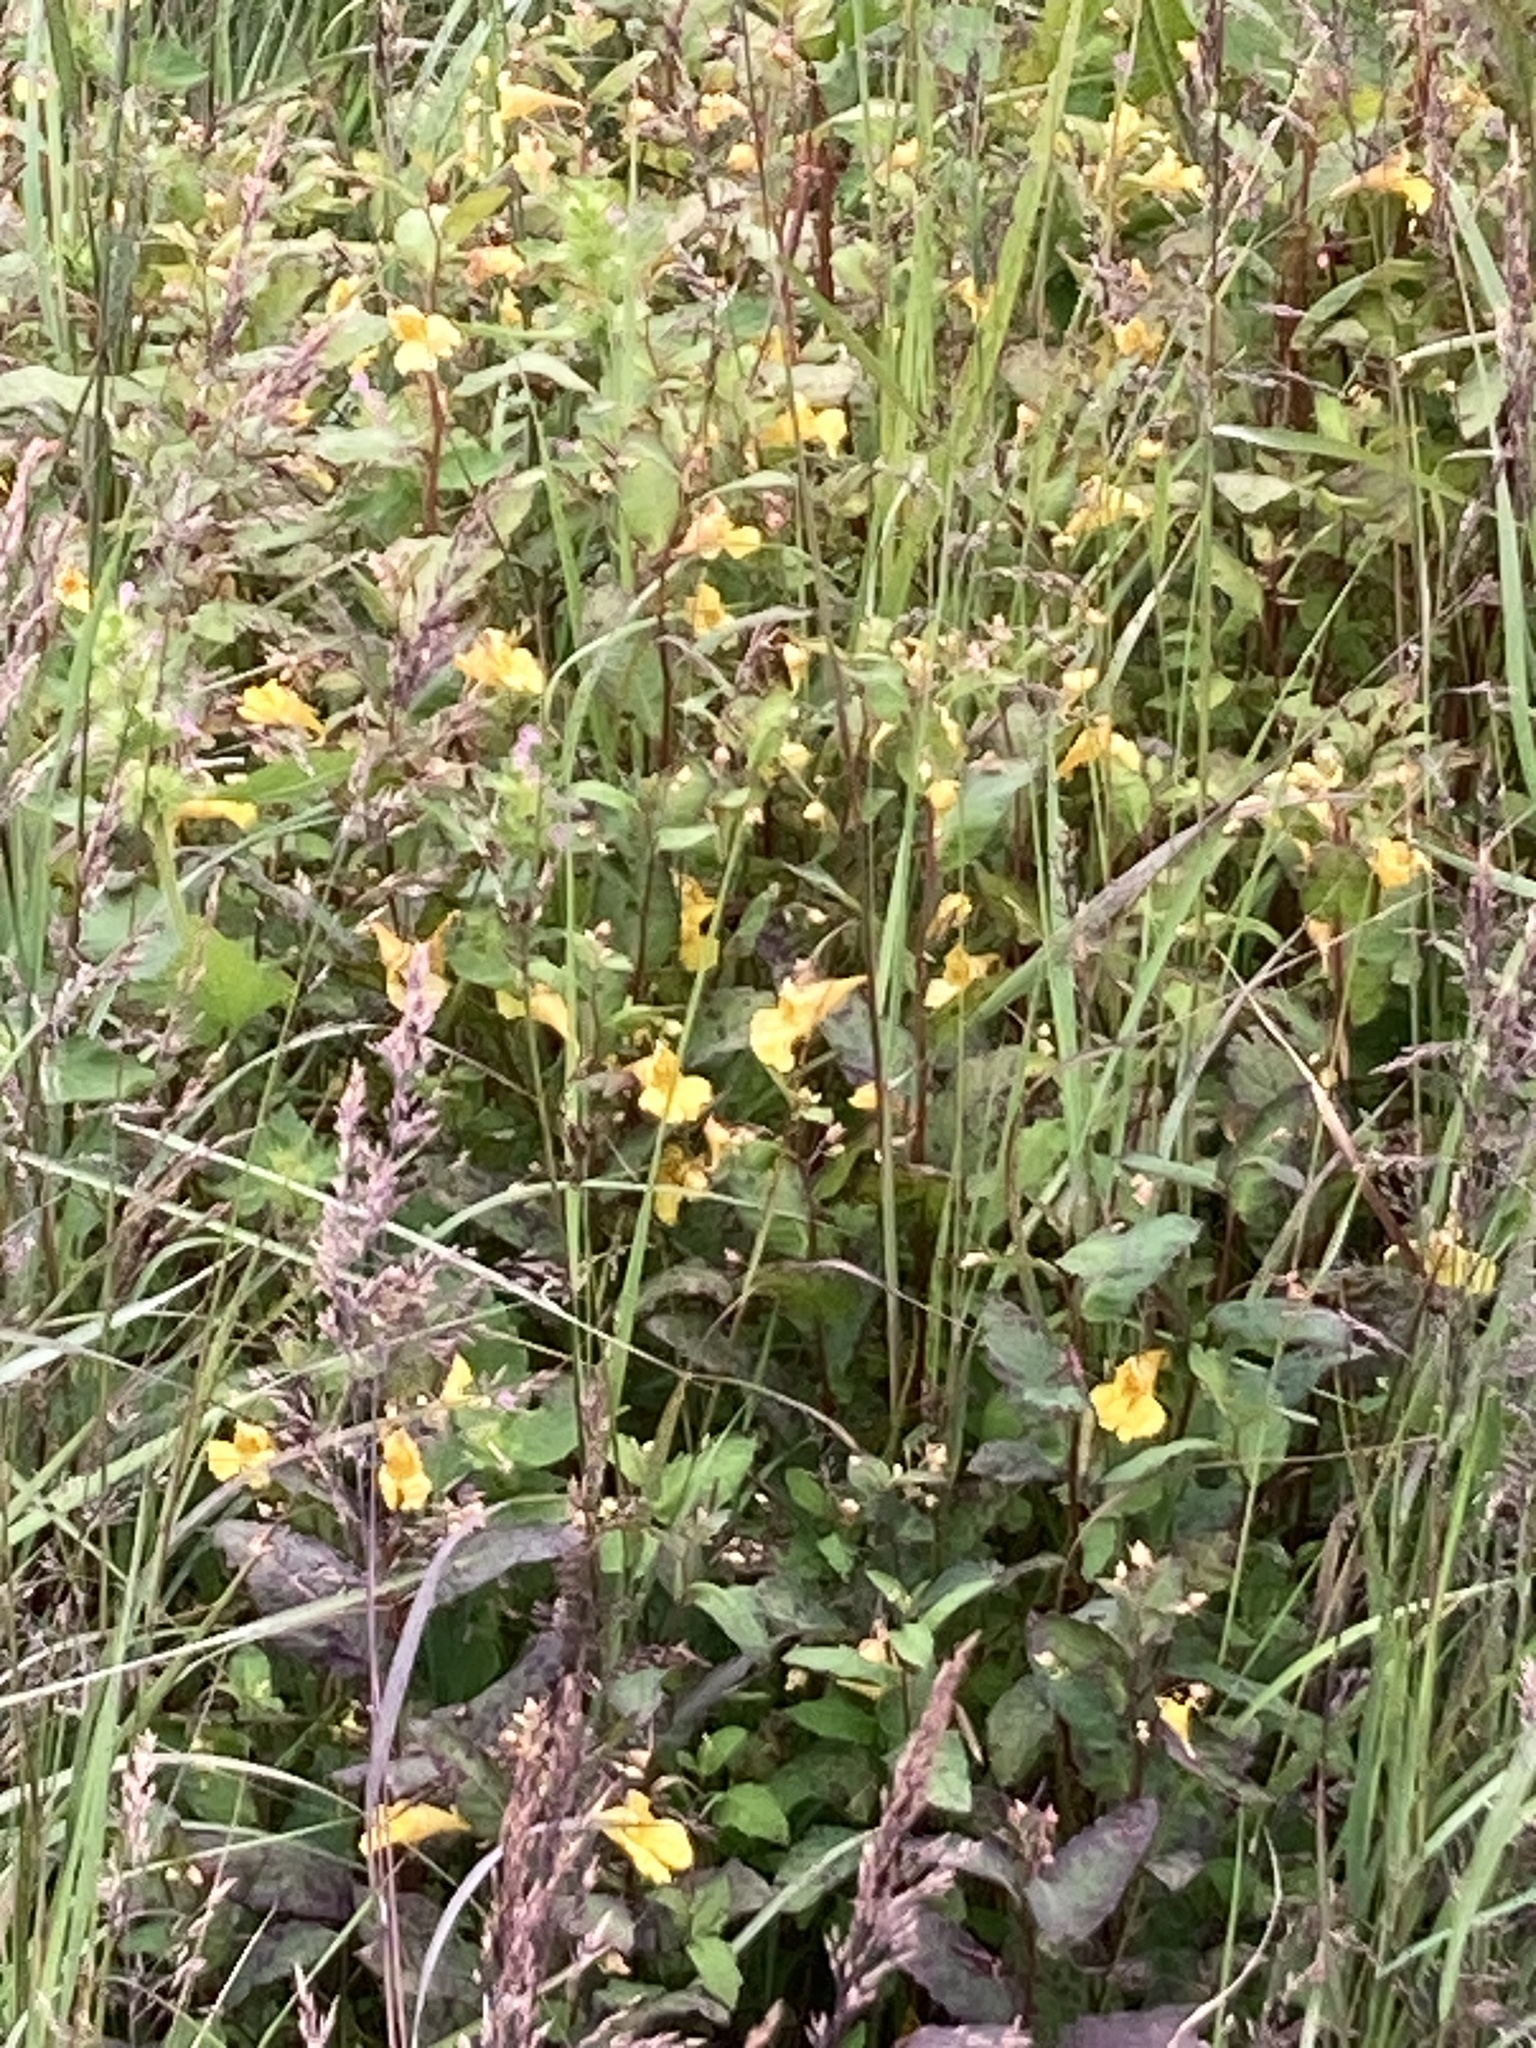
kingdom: Plantae
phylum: Tracheophyta
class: Magnoliopsida
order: Ericales
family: Balsaminaceae
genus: Impatiens
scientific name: Impatiens noli-tangere
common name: Touch-me-not balsam
